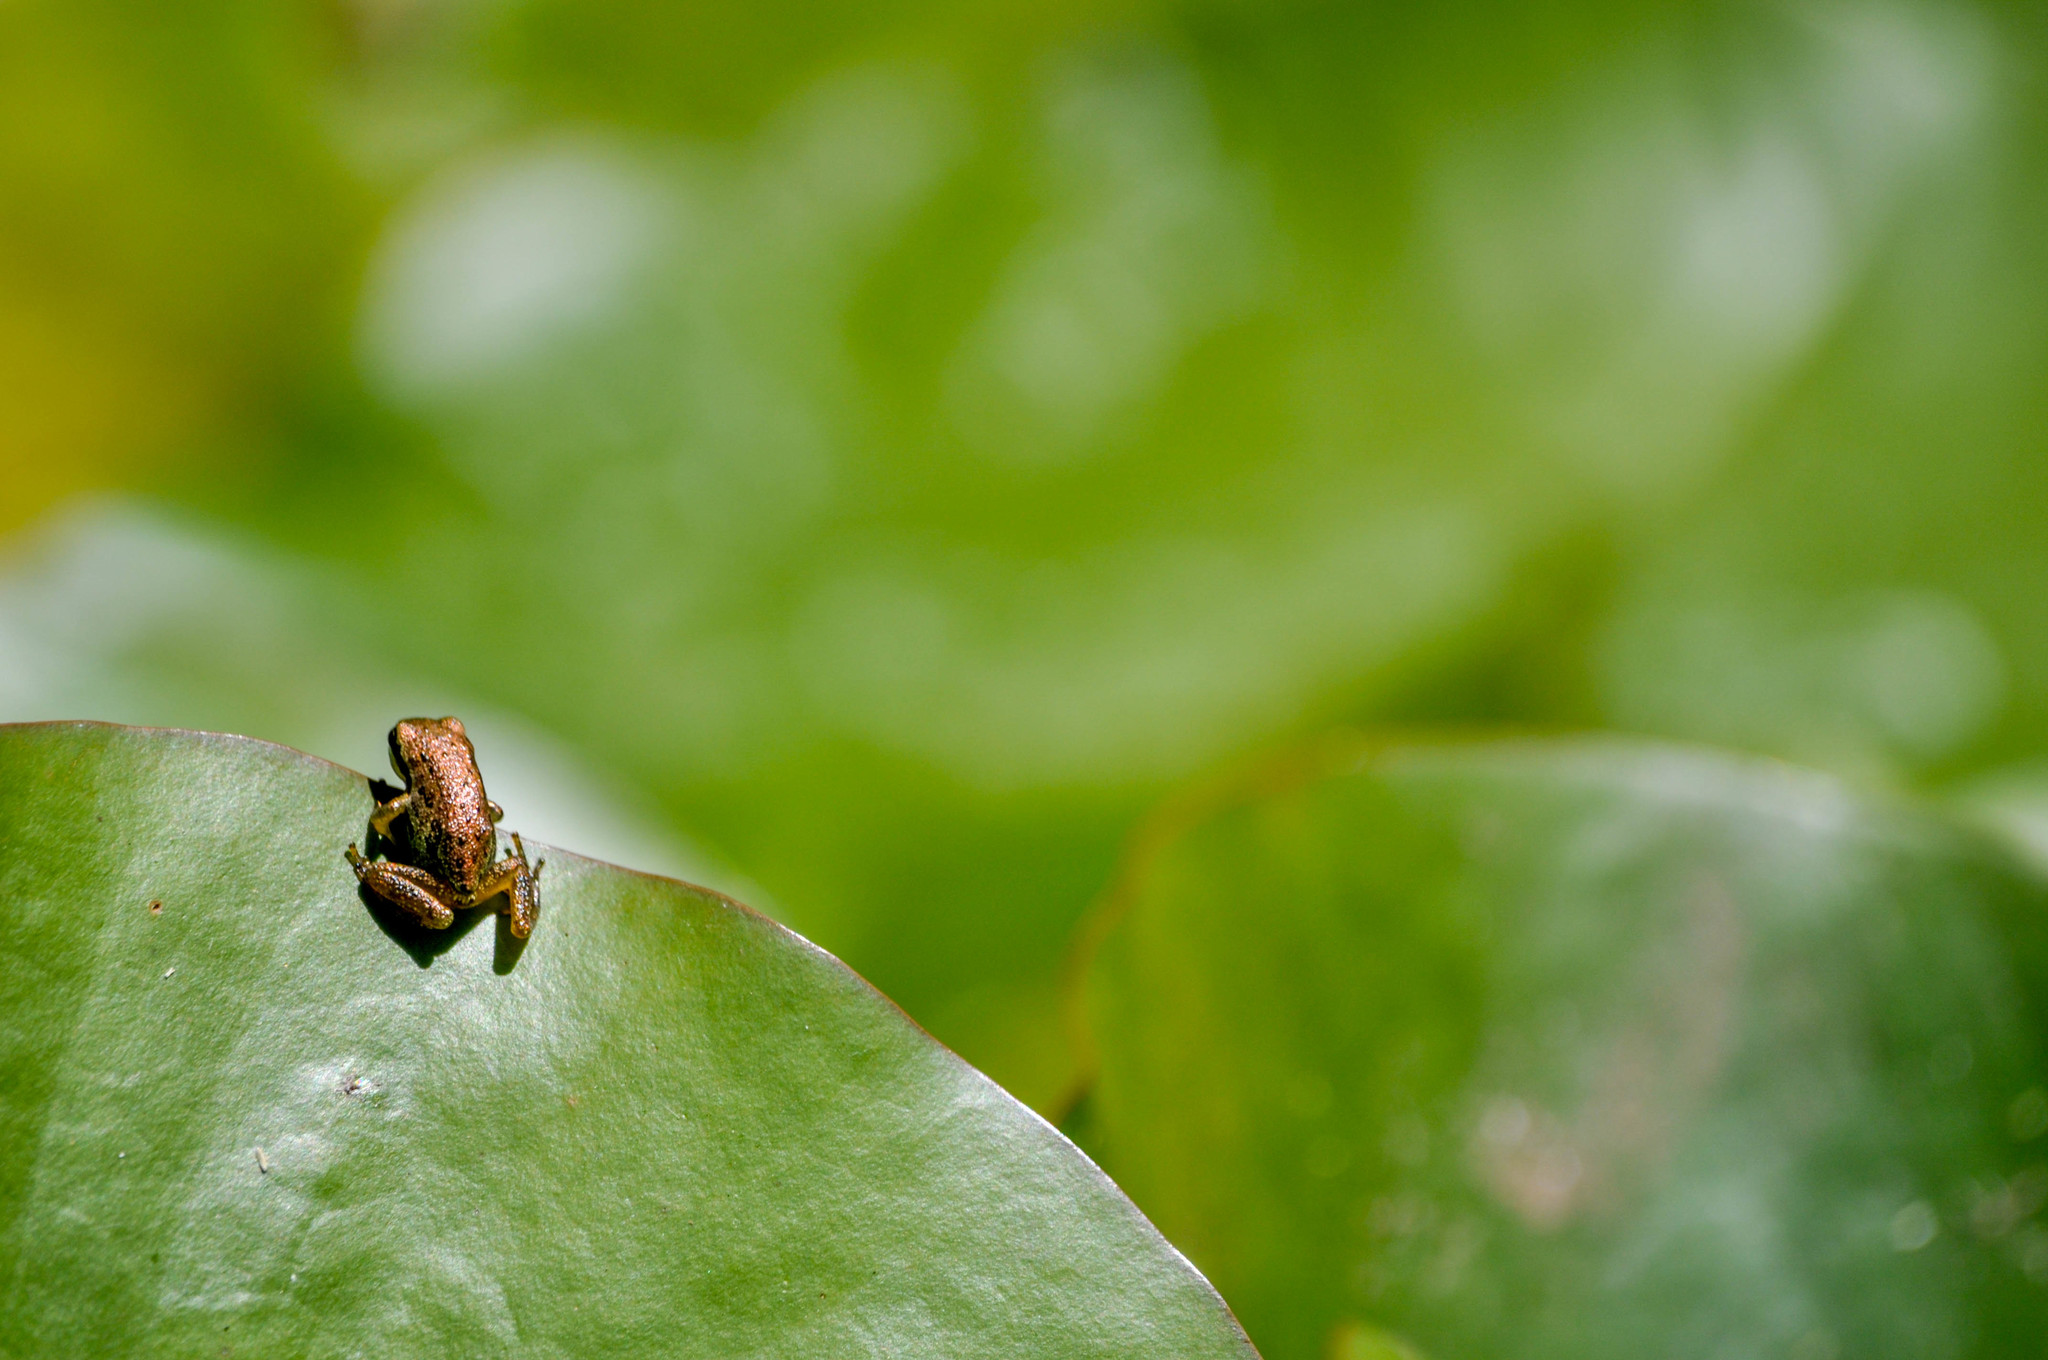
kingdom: Animalia
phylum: Chordata
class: Amphibia
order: Anura
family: Hylidae
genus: Pseudacris
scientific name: Pseudacris regilla
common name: Pacific chorus frog
